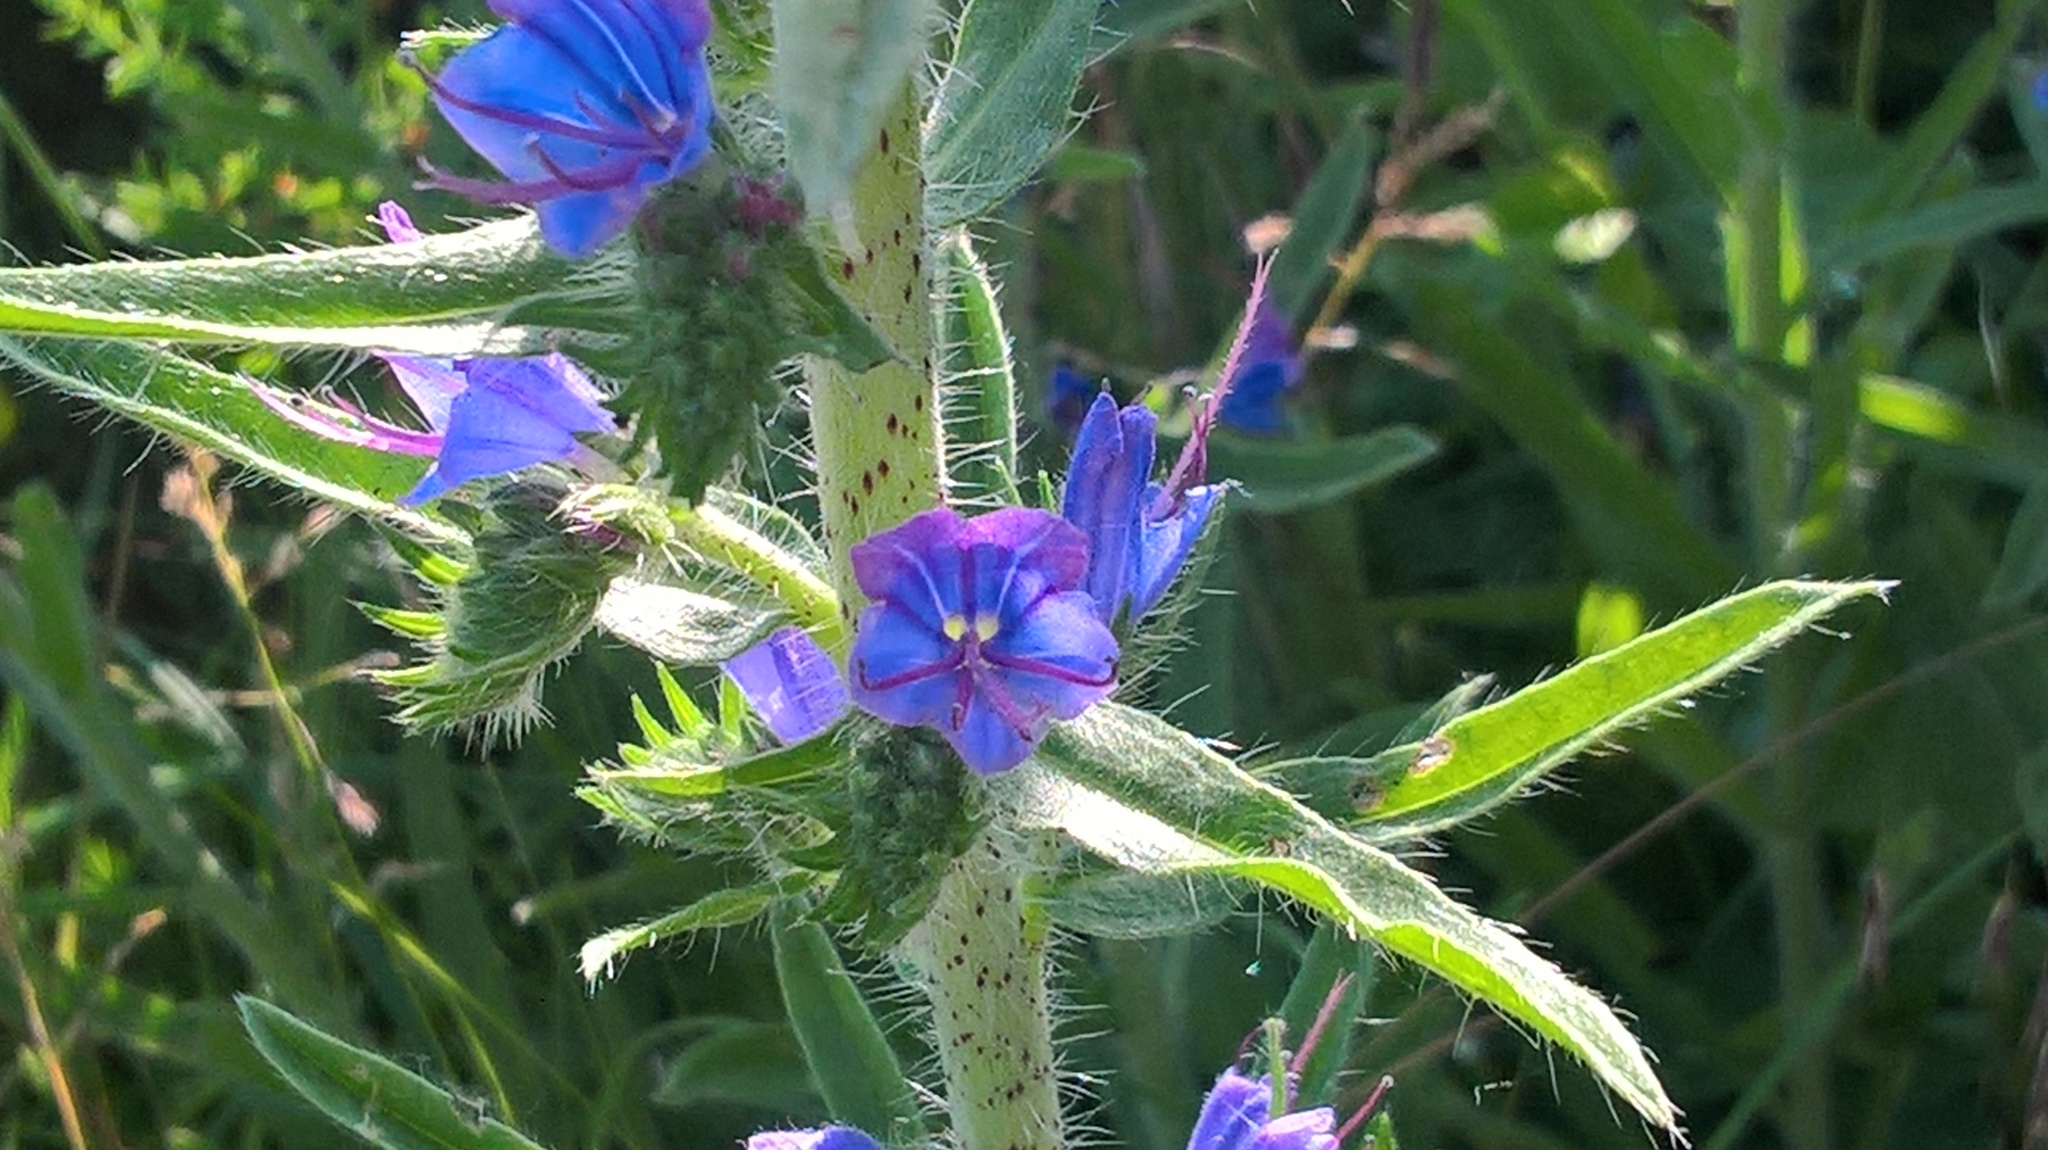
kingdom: Plantae
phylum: Tracheophyta
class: Magnoliopsida
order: Boraginales
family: Boraginaceae
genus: Echium
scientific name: Echium vulgare
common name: Common viper's bugloss
